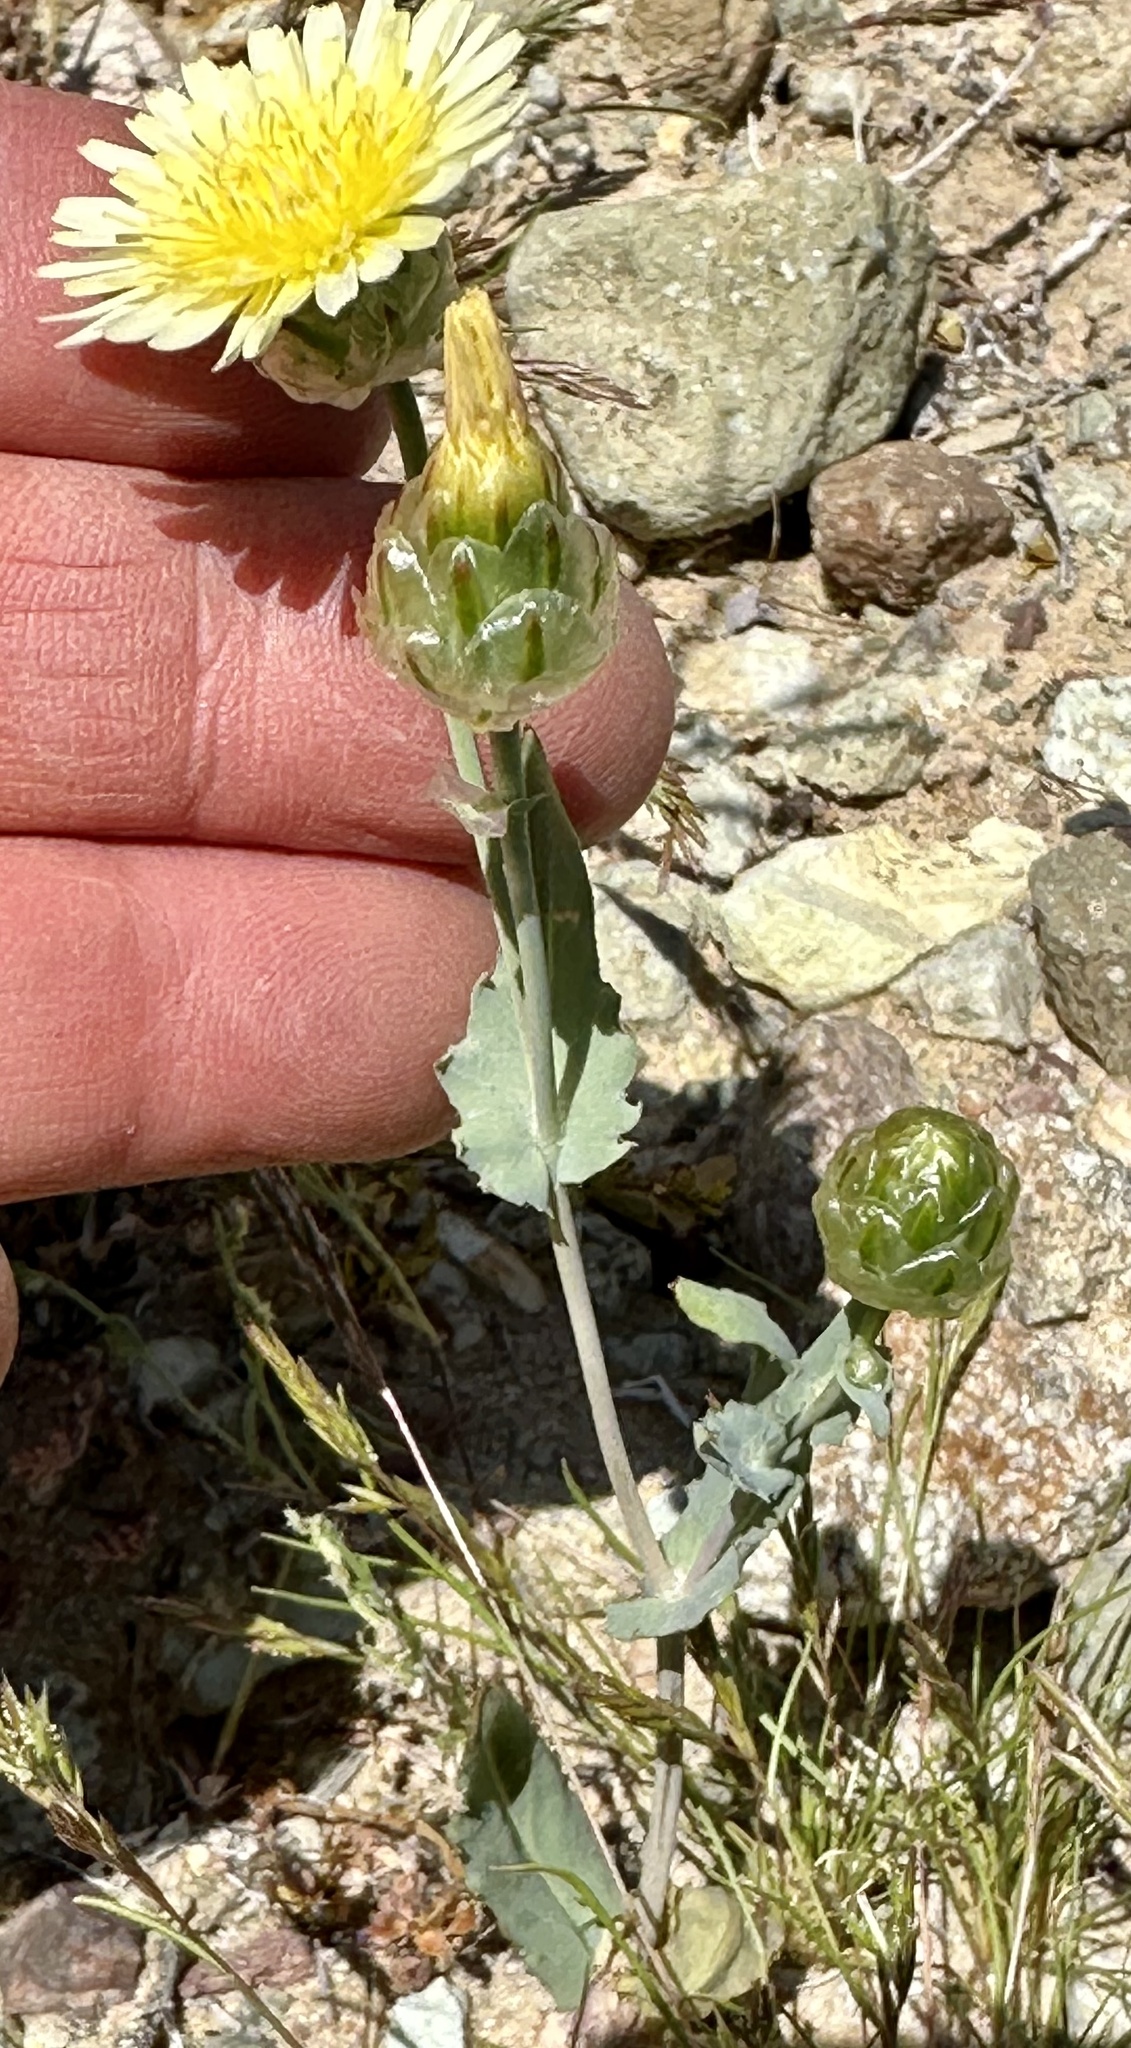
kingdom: Plantae
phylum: Tracheophyta
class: Magnoliopsida
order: Asterales
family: Asteraceae
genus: Malacothrix
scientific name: Malacothrix coulteri
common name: Snake's-head
